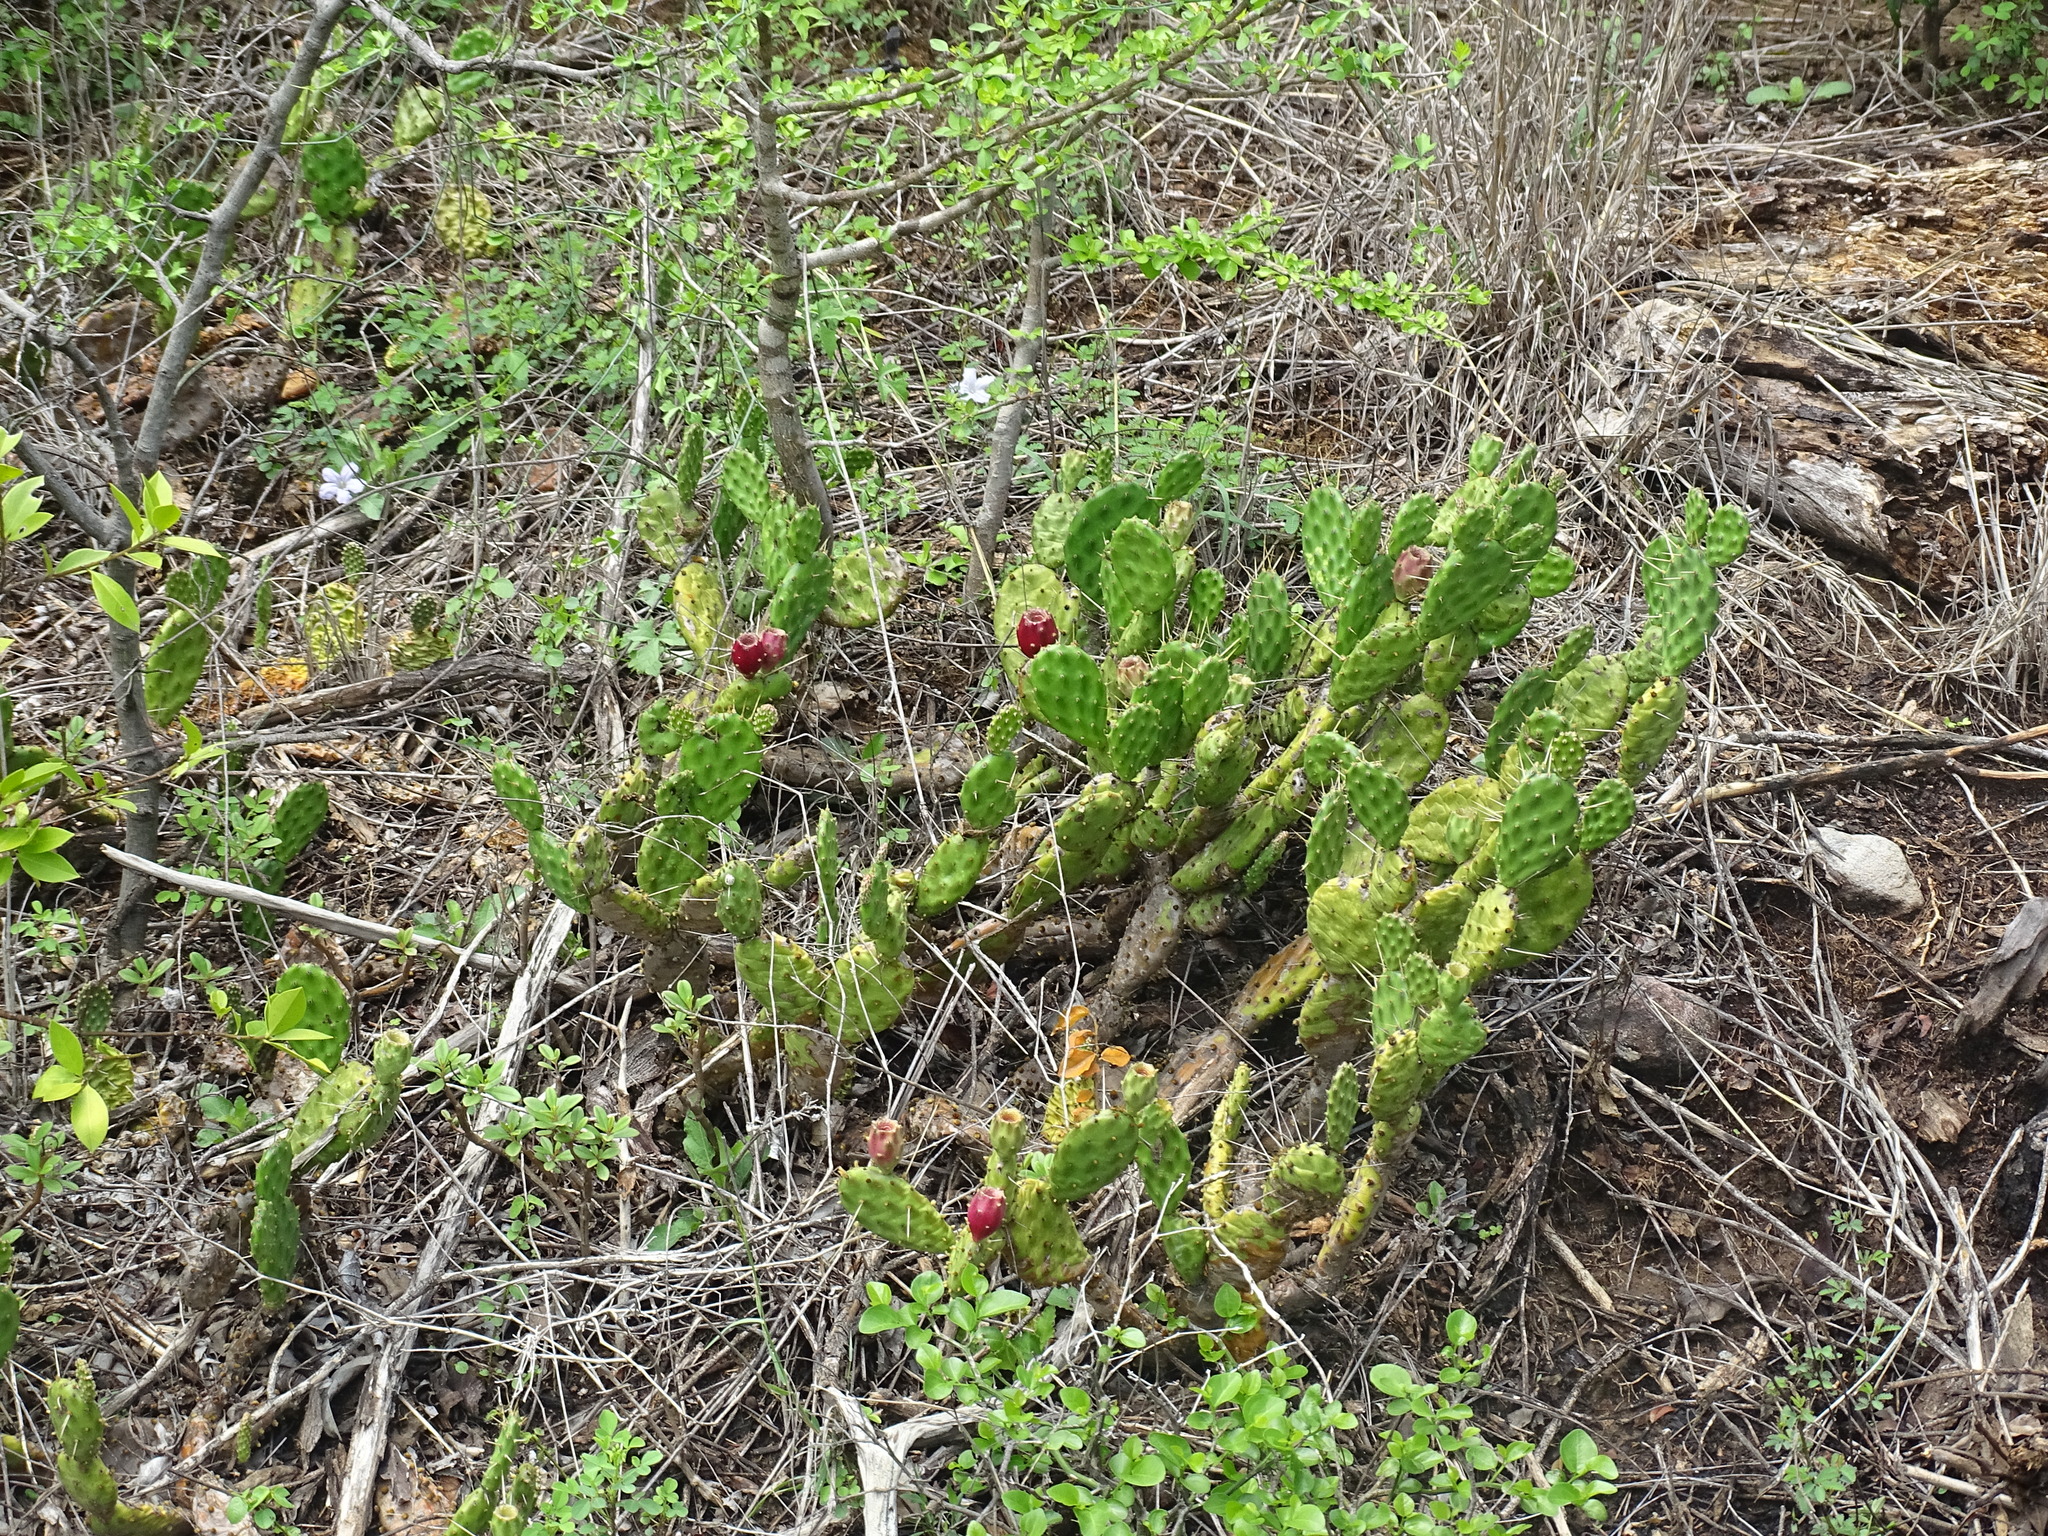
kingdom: Plantae
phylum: Tracheophyta
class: Magnoliopsida
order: Caryophyllales
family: Cactaceae
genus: Opuntia
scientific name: Opuntia decumbens
